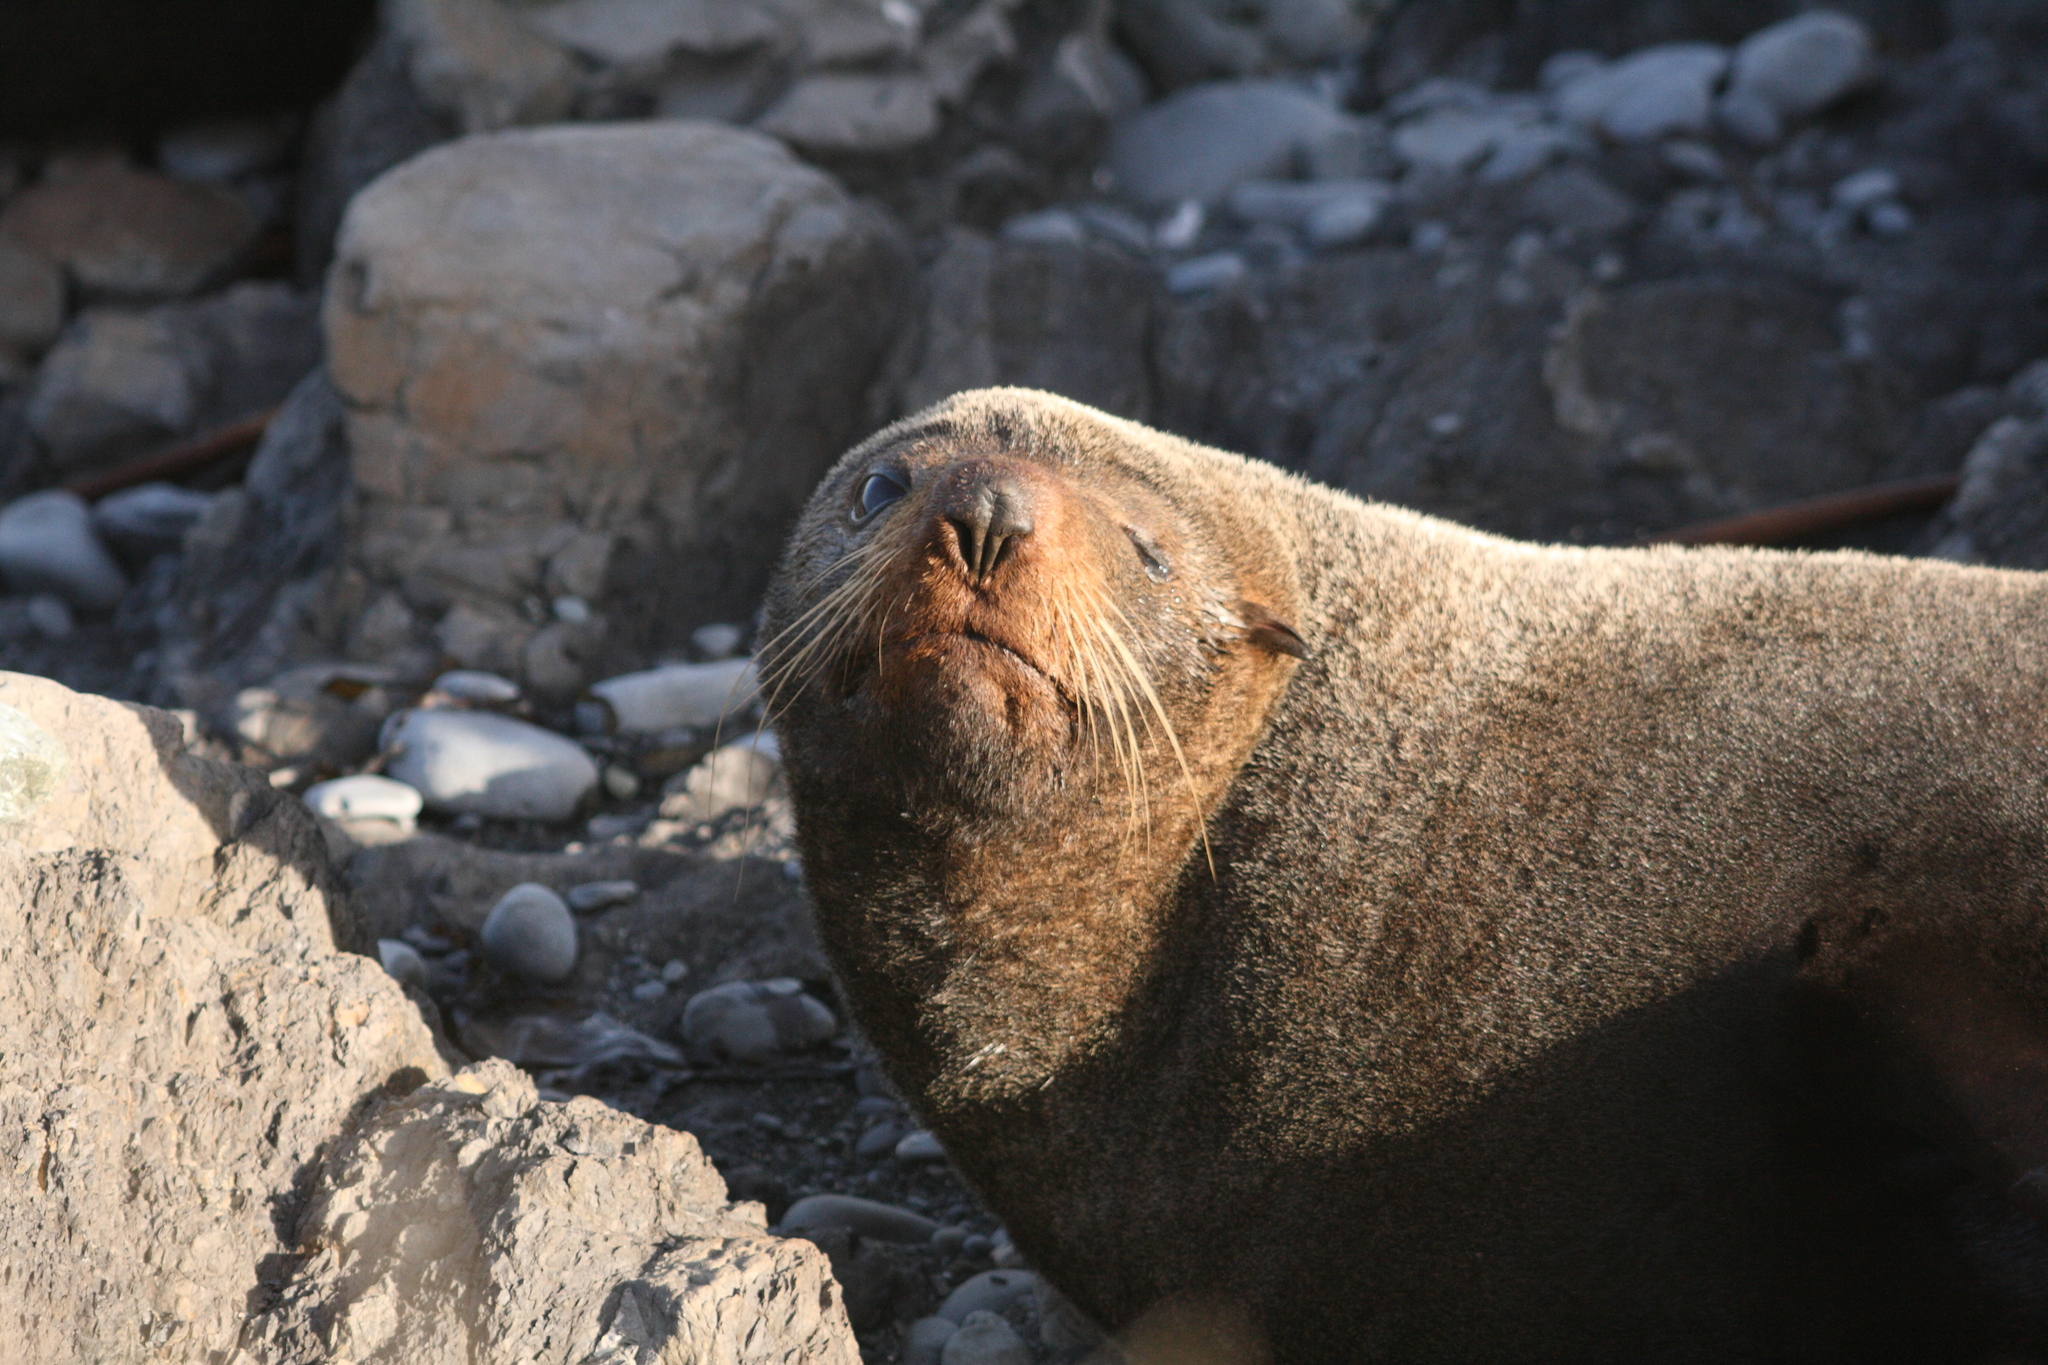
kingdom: Animalia
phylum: Chordata
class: Mammalia
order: Carnivora
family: Otariidae
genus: Arctocephalus
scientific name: Arctocephalus forsteri
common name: New zealand fur seal
